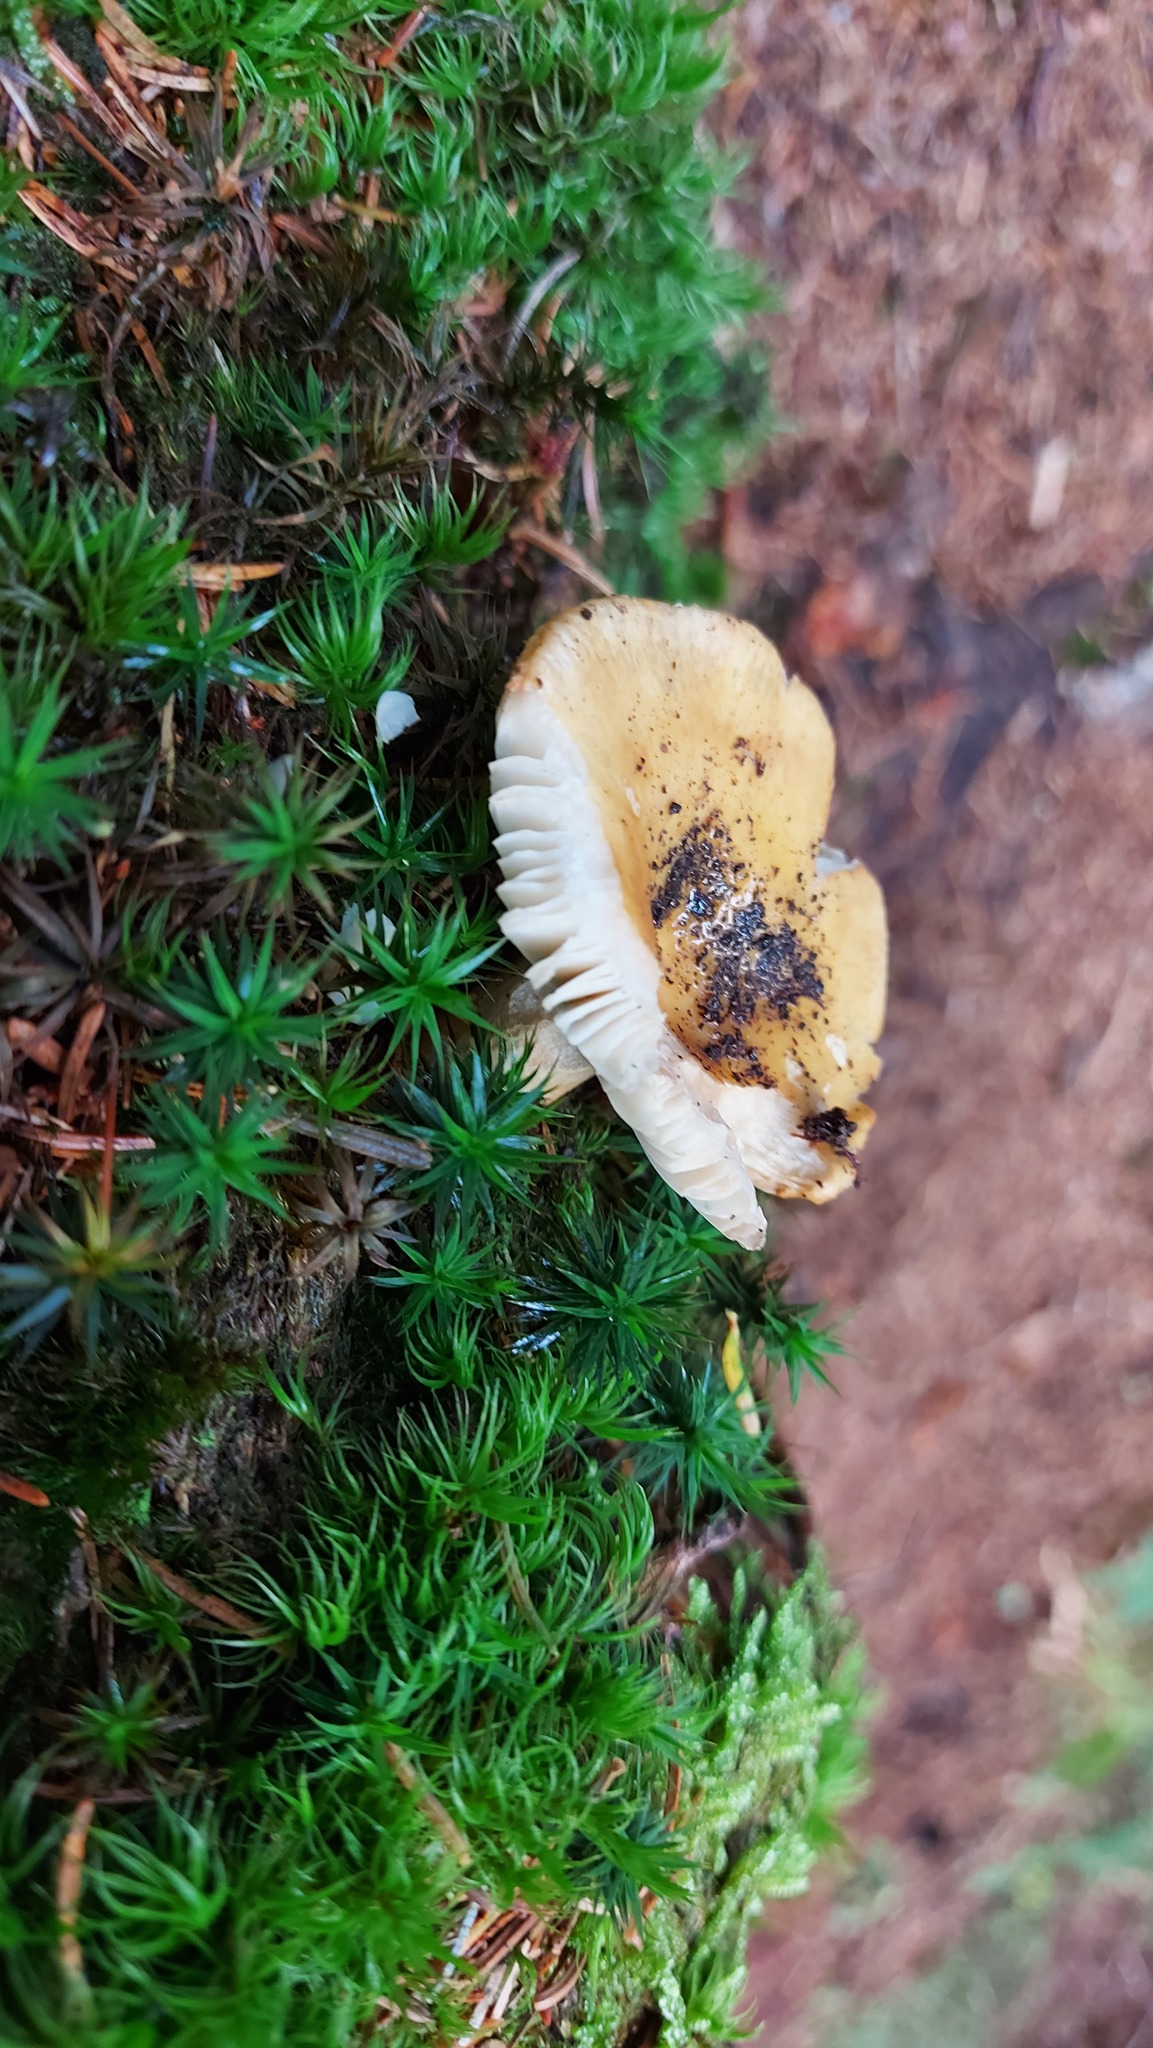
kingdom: Fungi
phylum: Basidiomycota
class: Agaricomycetes
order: Russulales
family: Russulaceae
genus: Russula
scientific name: Russula ochroleuca
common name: Common yellow russula
